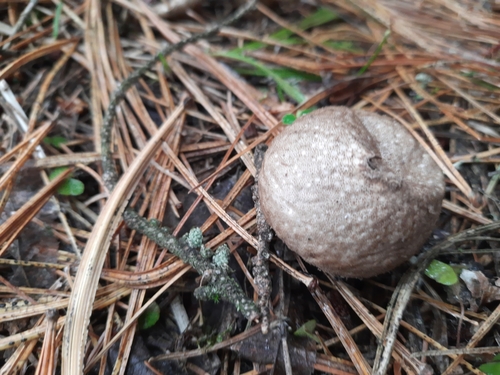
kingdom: Fungi
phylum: Basidiomycota
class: Agaricomycetes
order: Agaricales
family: Lycoperdaceae
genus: Lycoperdon
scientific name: Lycoperdon perlatum
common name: Common puffball
